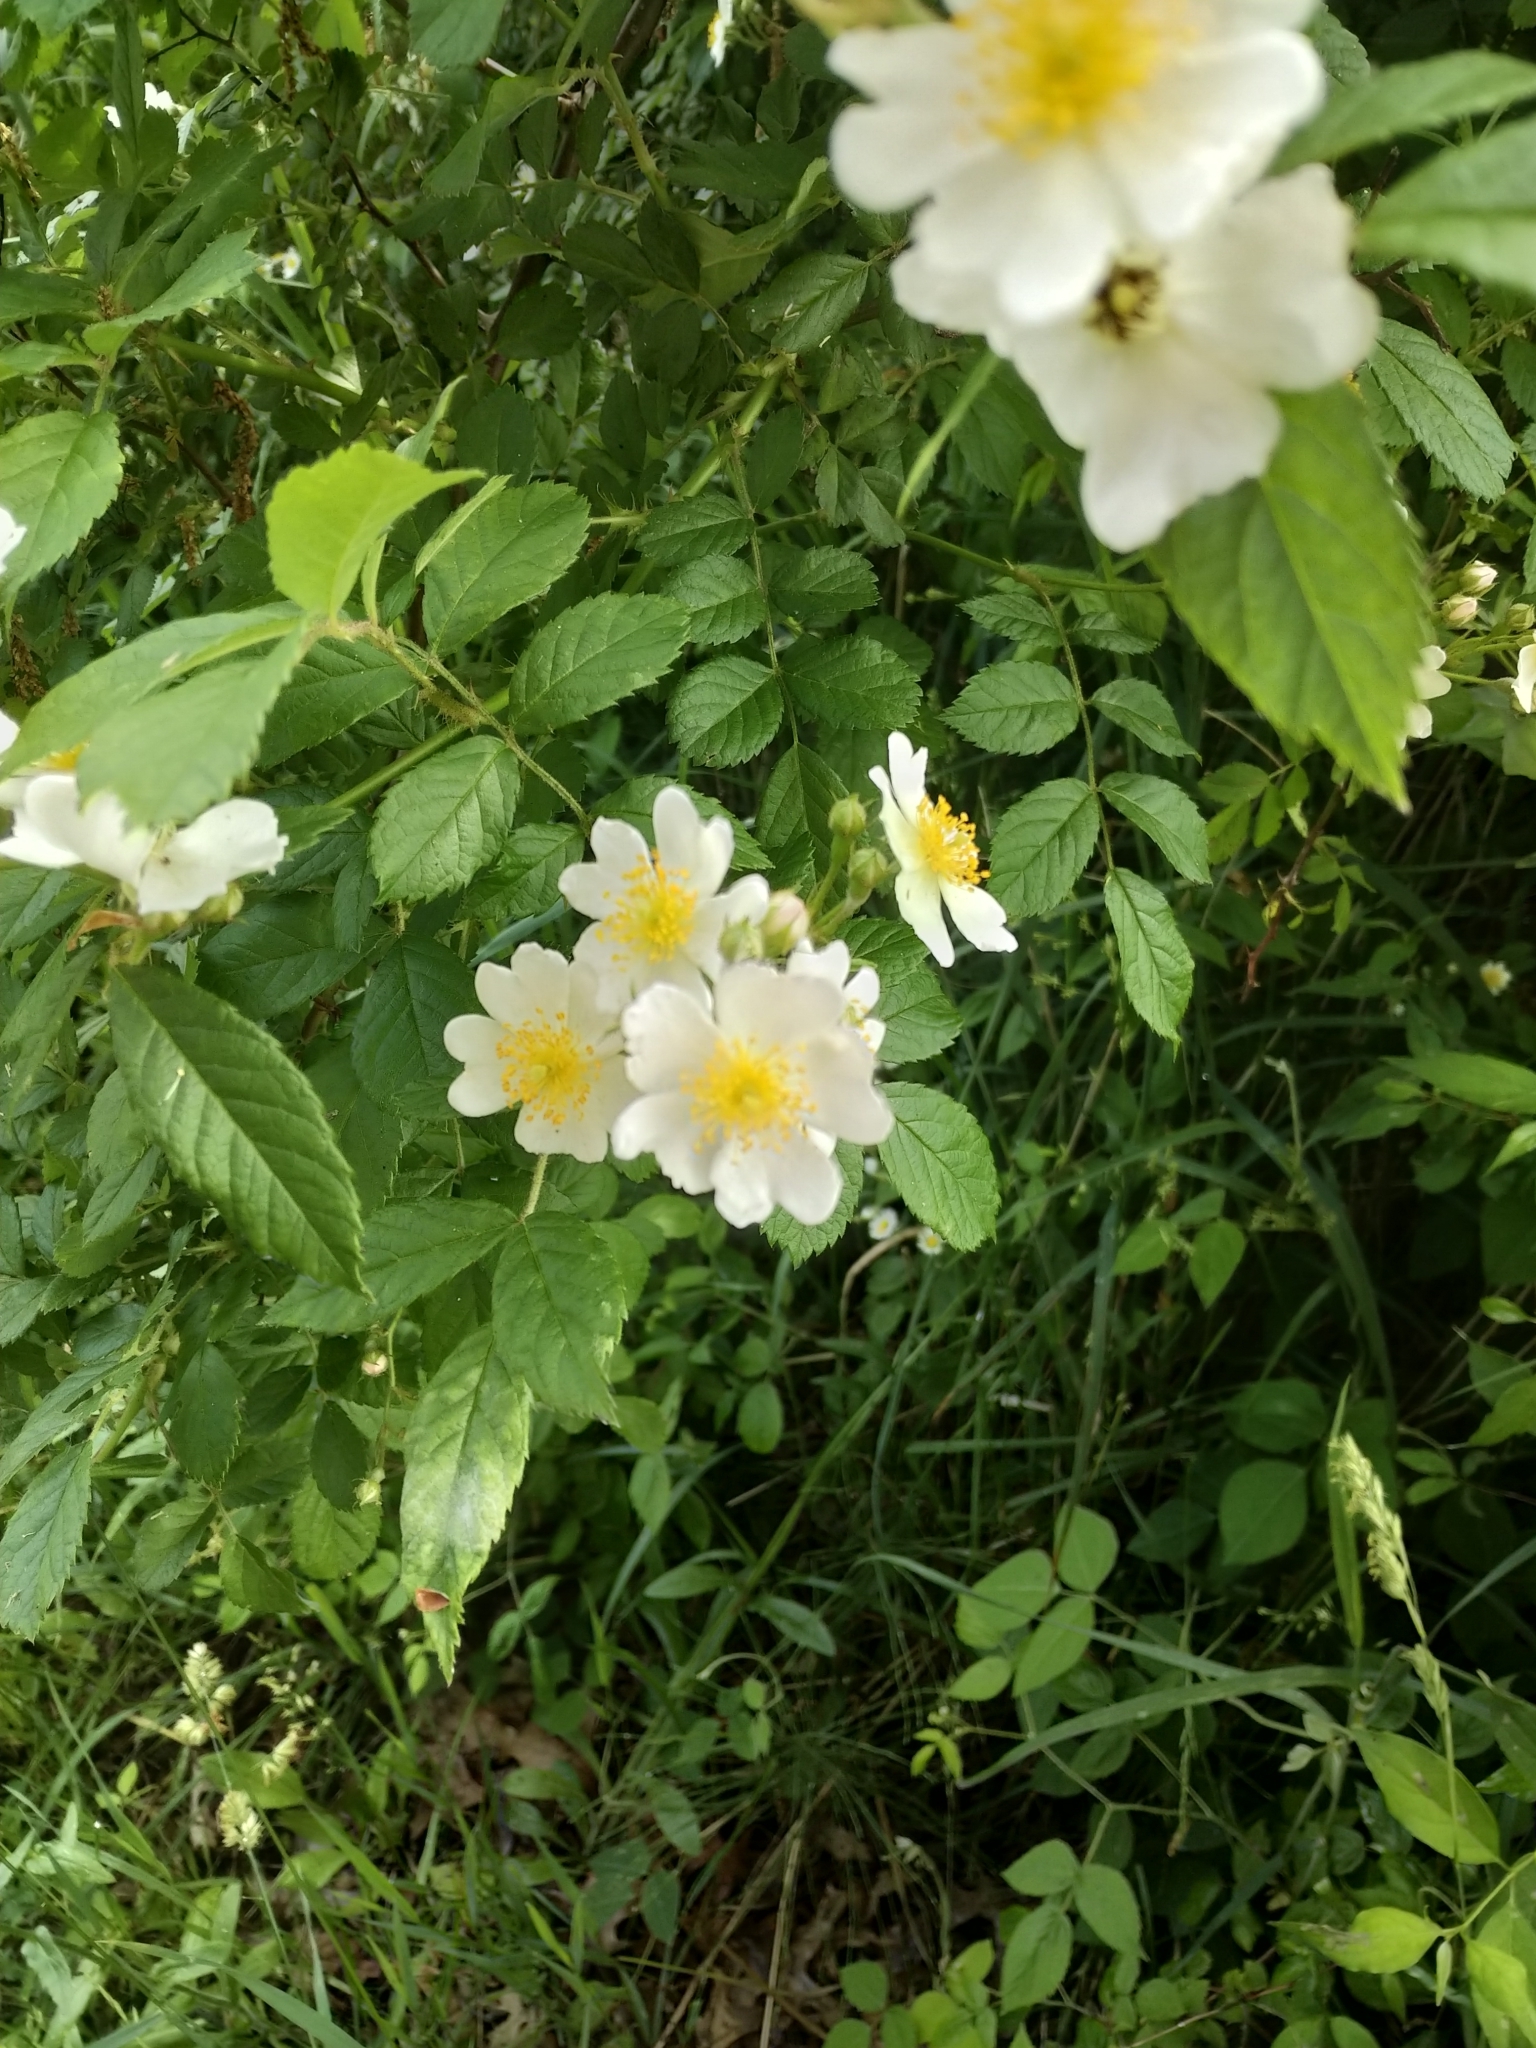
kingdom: Plantae
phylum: Tracheophyta
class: Magnoliopsida
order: Rosales
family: Rosaceae
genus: Rosa
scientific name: Rosa multiflora
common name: Multiflora rose
